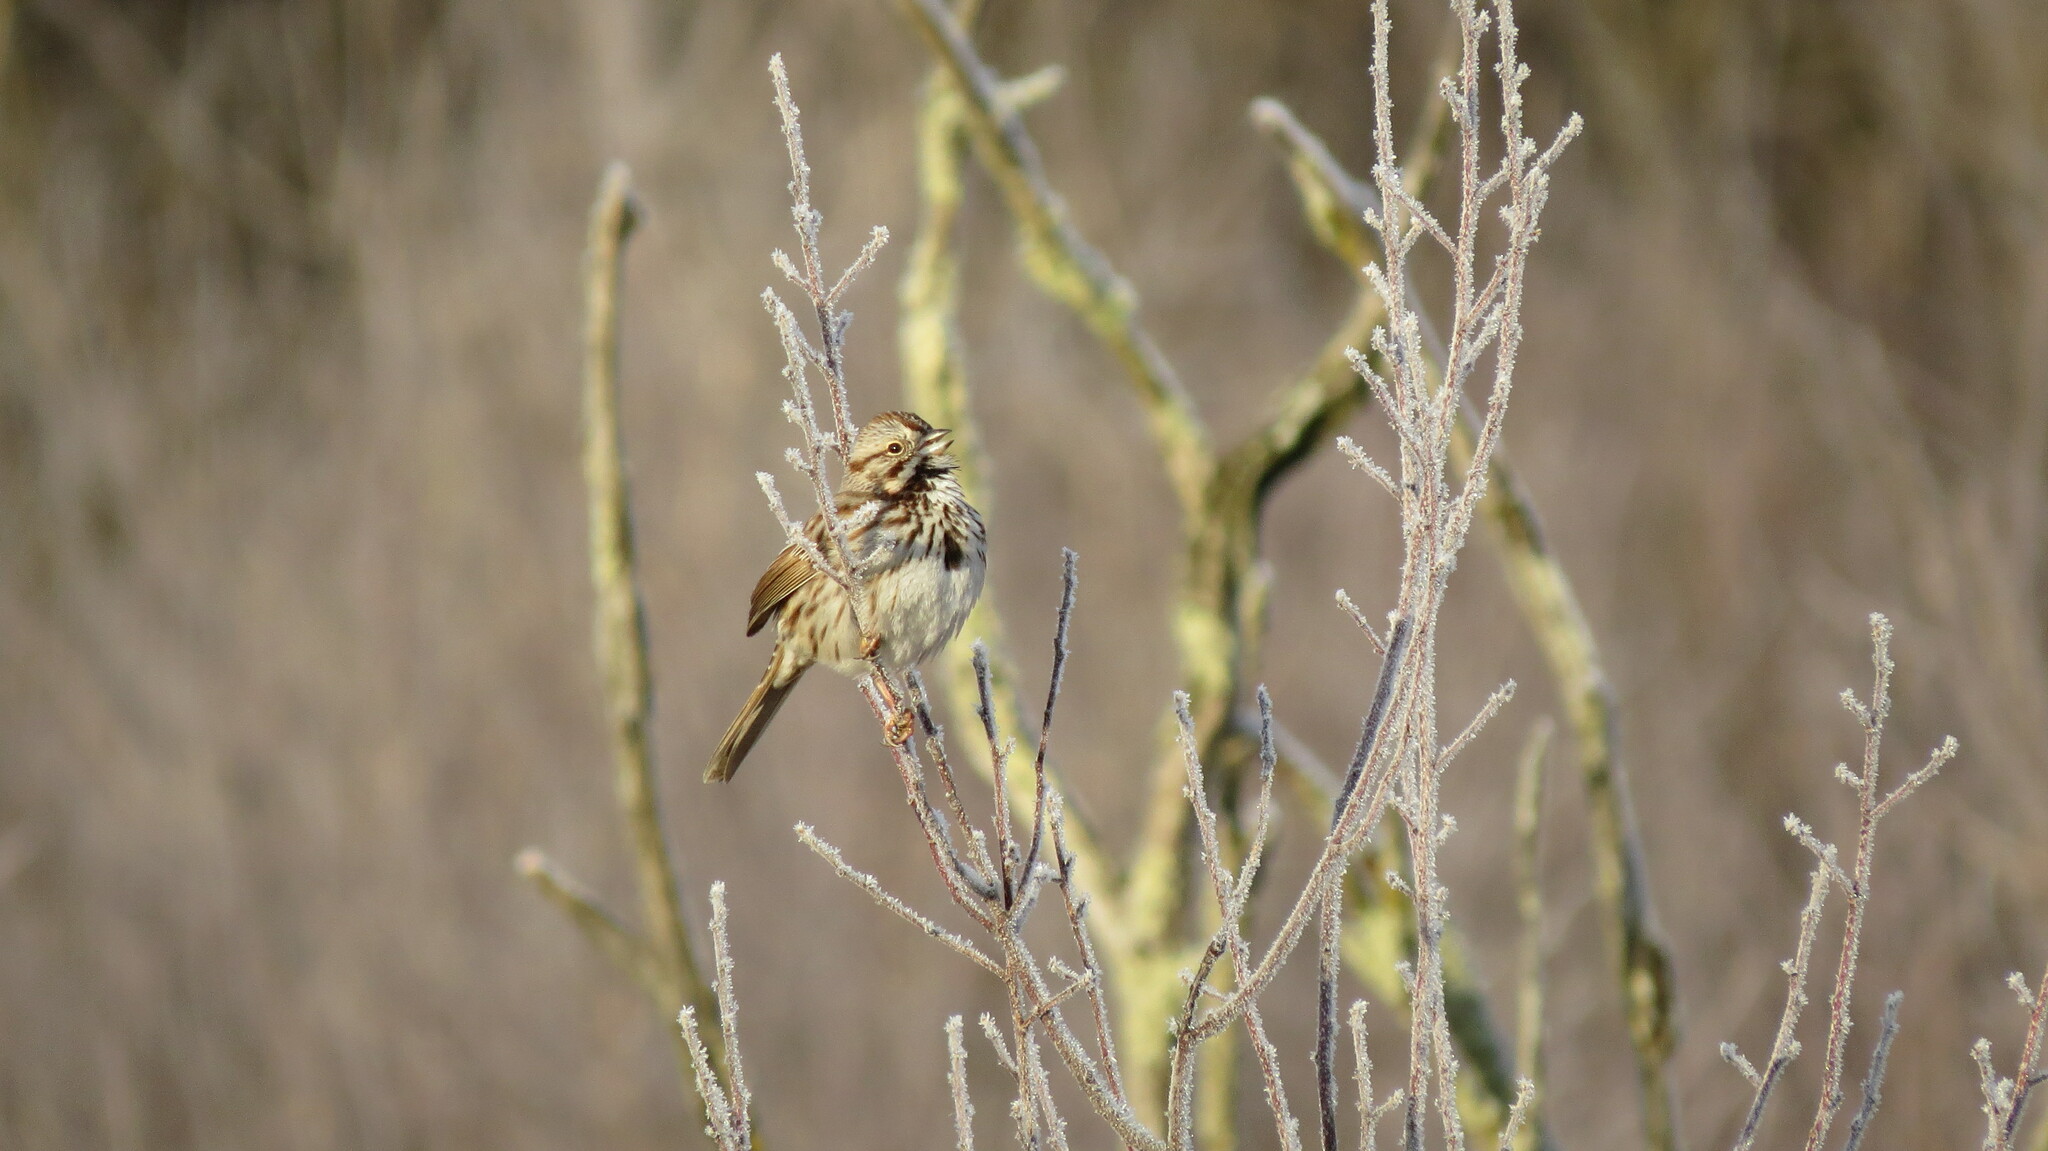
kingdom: Animalia
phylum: Chordata
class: Aves
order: Passeriformes
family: Passerellidae
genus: Melospiza
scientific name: Melospiza melodia
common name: Song sparrow
